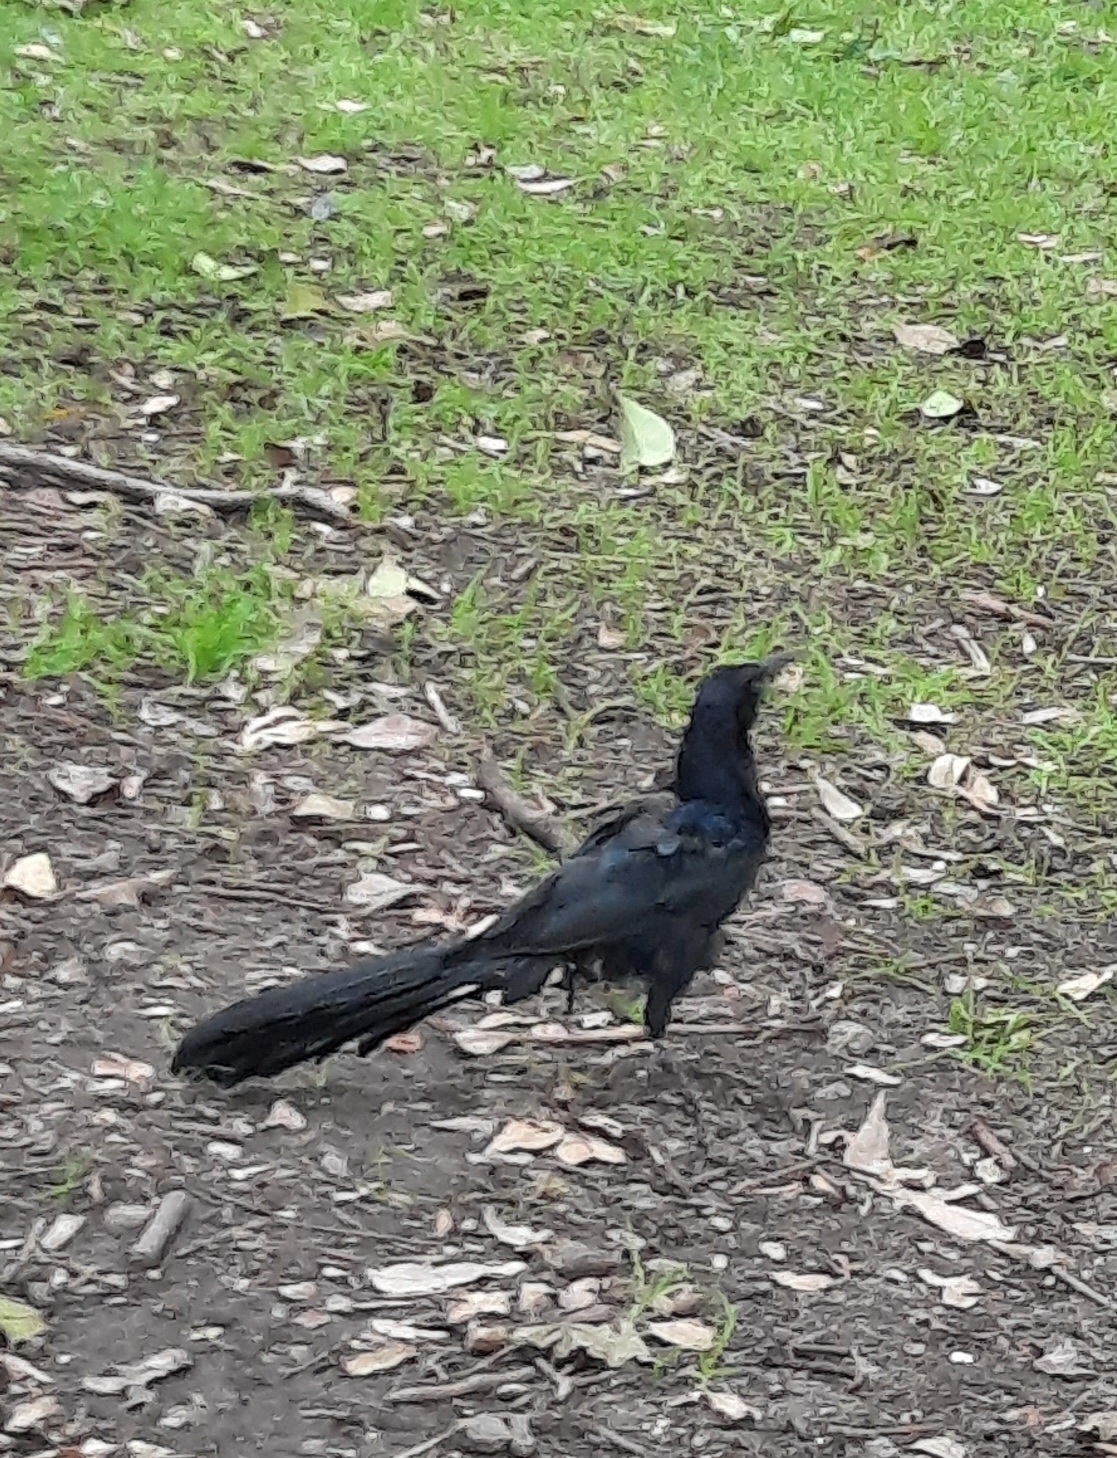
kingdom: Animalia
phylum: Chordata
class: Aves
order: Passeriformes
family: Icteridae
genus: Quiscalus
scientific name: Quiscalus mexicanus
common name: Great-tailed grackle
